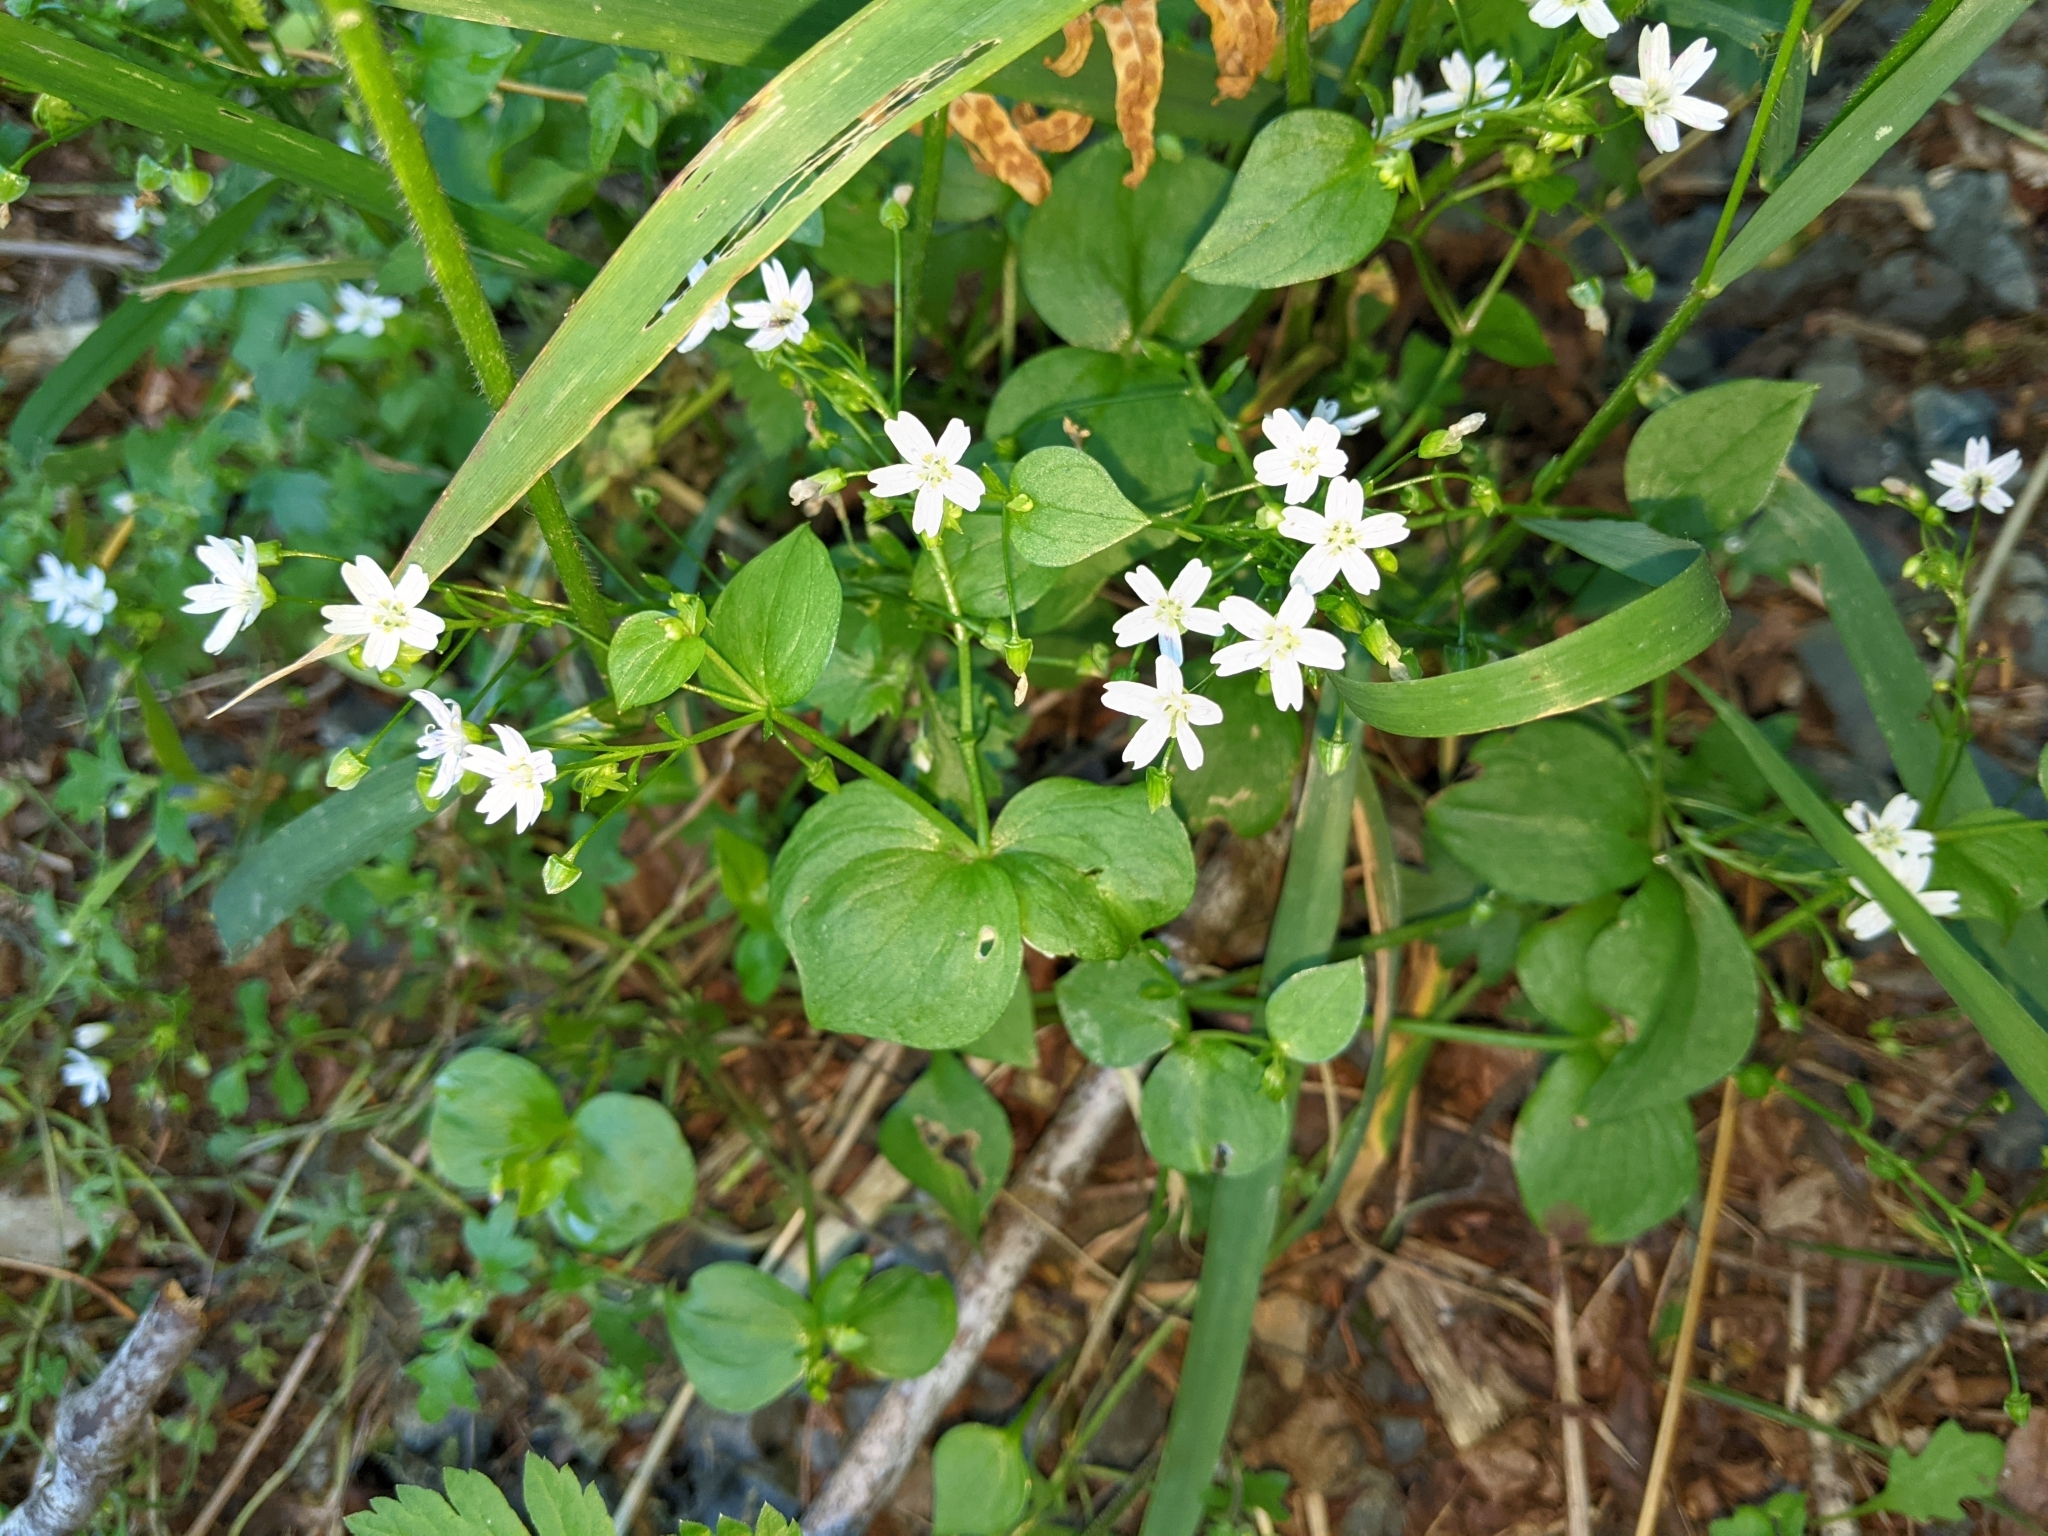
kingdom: Plantae
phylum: Tracheophyta
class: Magnoliopsida
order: Caryophyllales
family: Montiaceae
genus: Claytonia
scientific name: Claytonia sibirica
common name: Pink purslane
